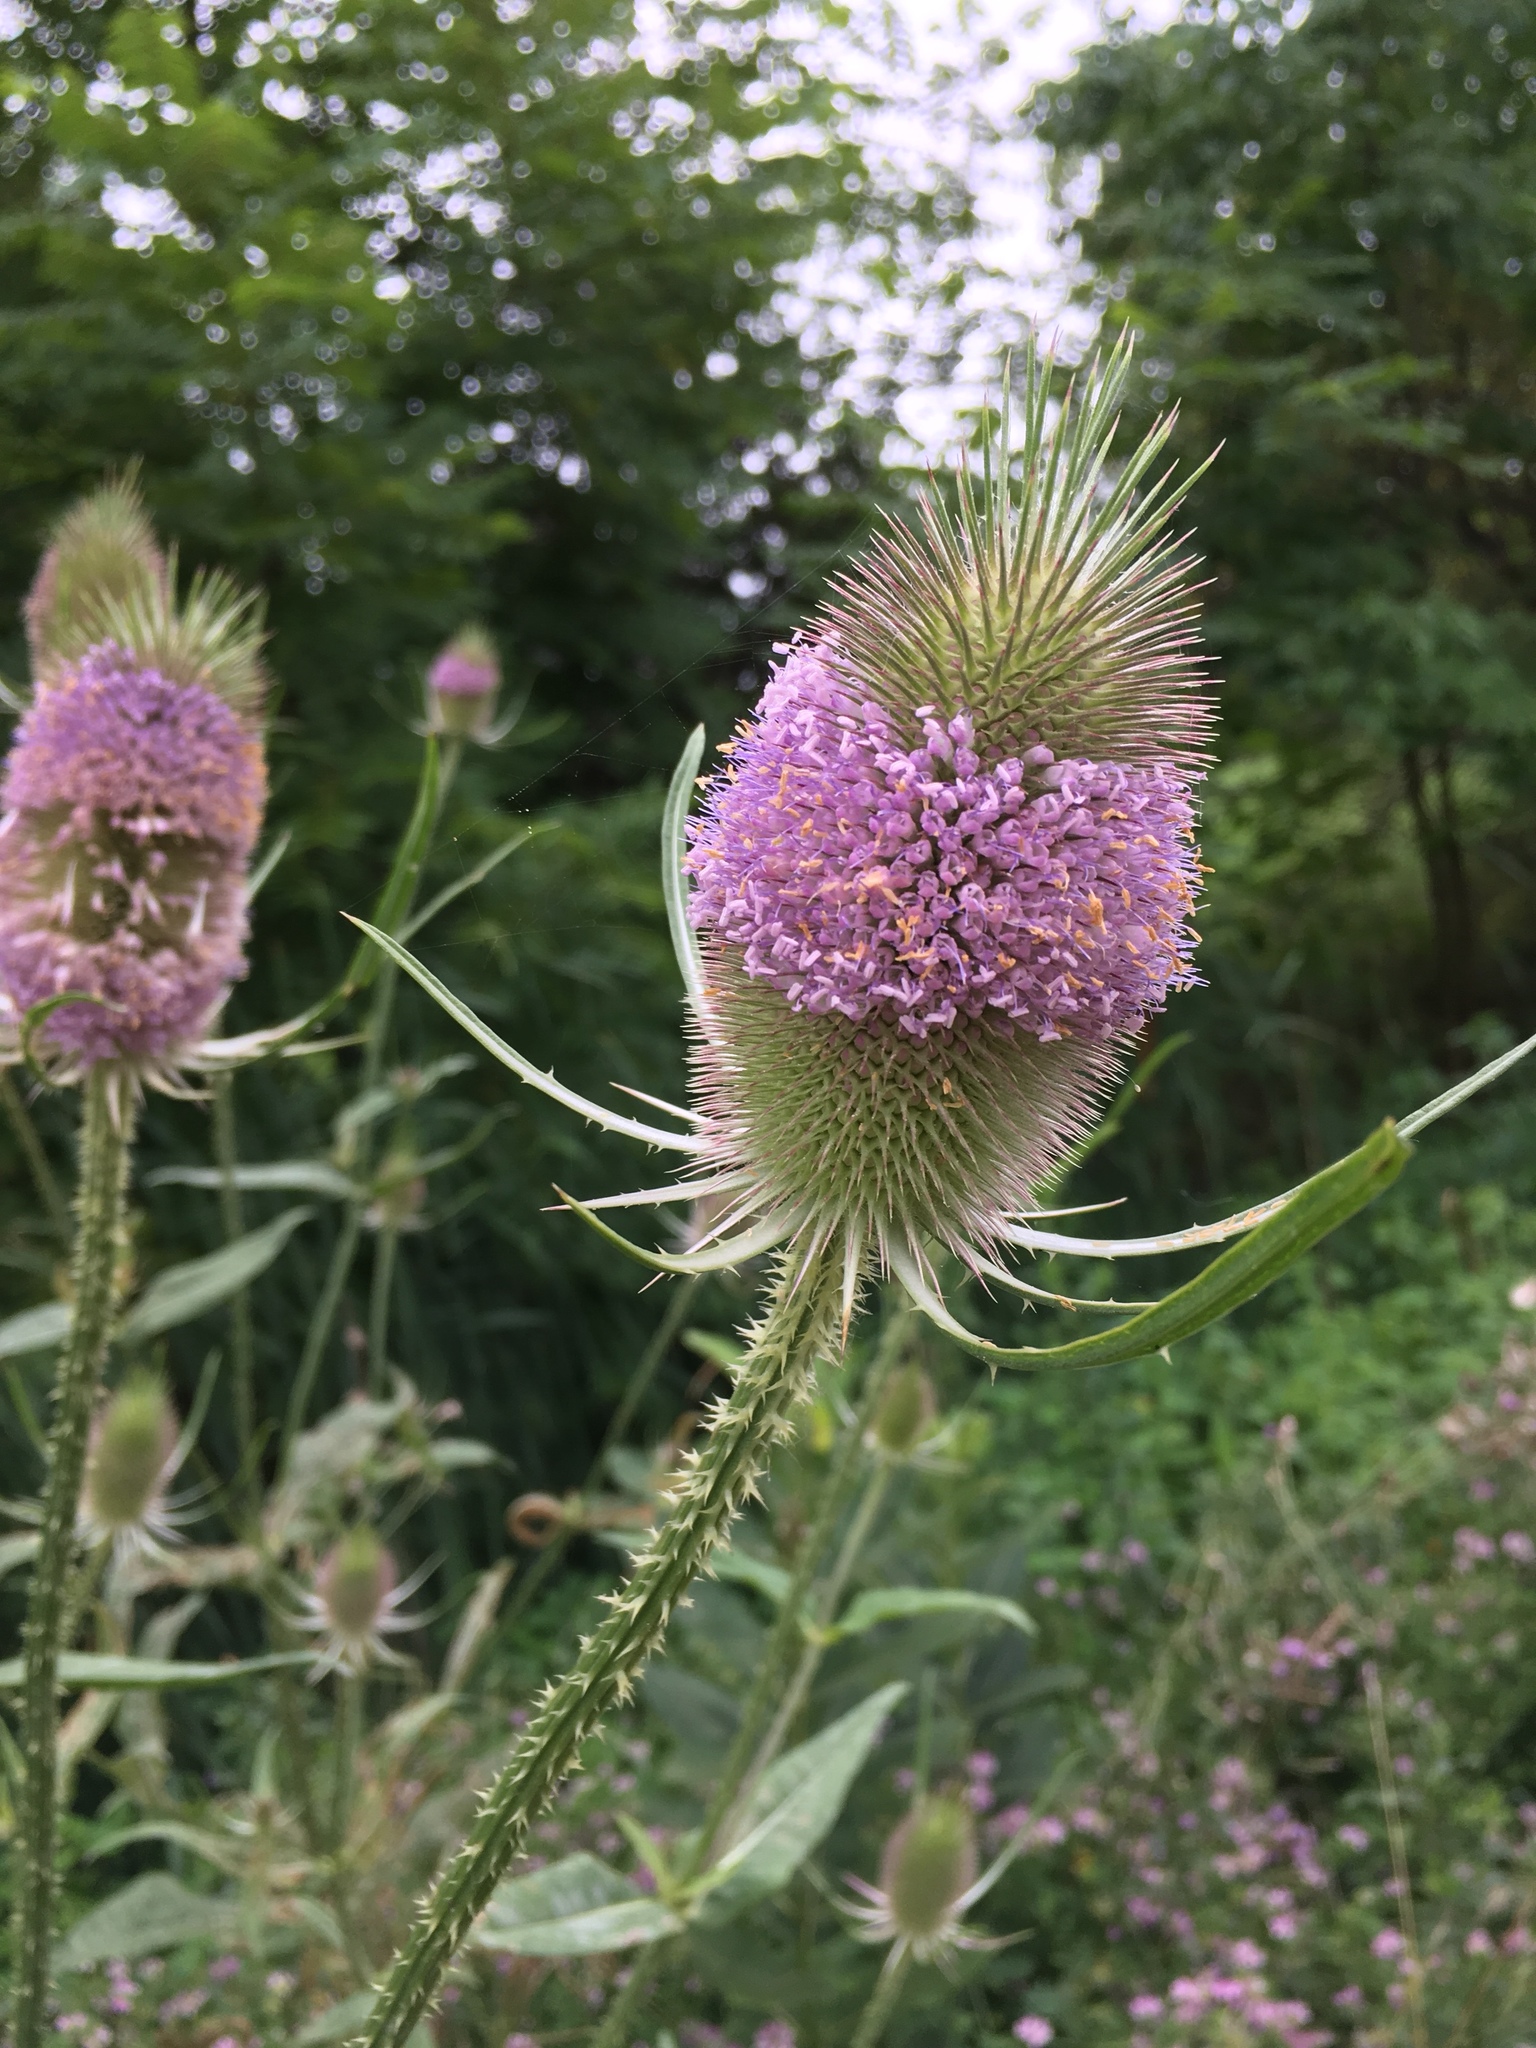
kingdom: Plantae
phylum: Tracheophyta
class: Magnoliopsida
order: Dipsacales
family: Caprifoliaceae
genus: Dipsacus
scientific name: Dipsacus fullonum
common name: Teasel
